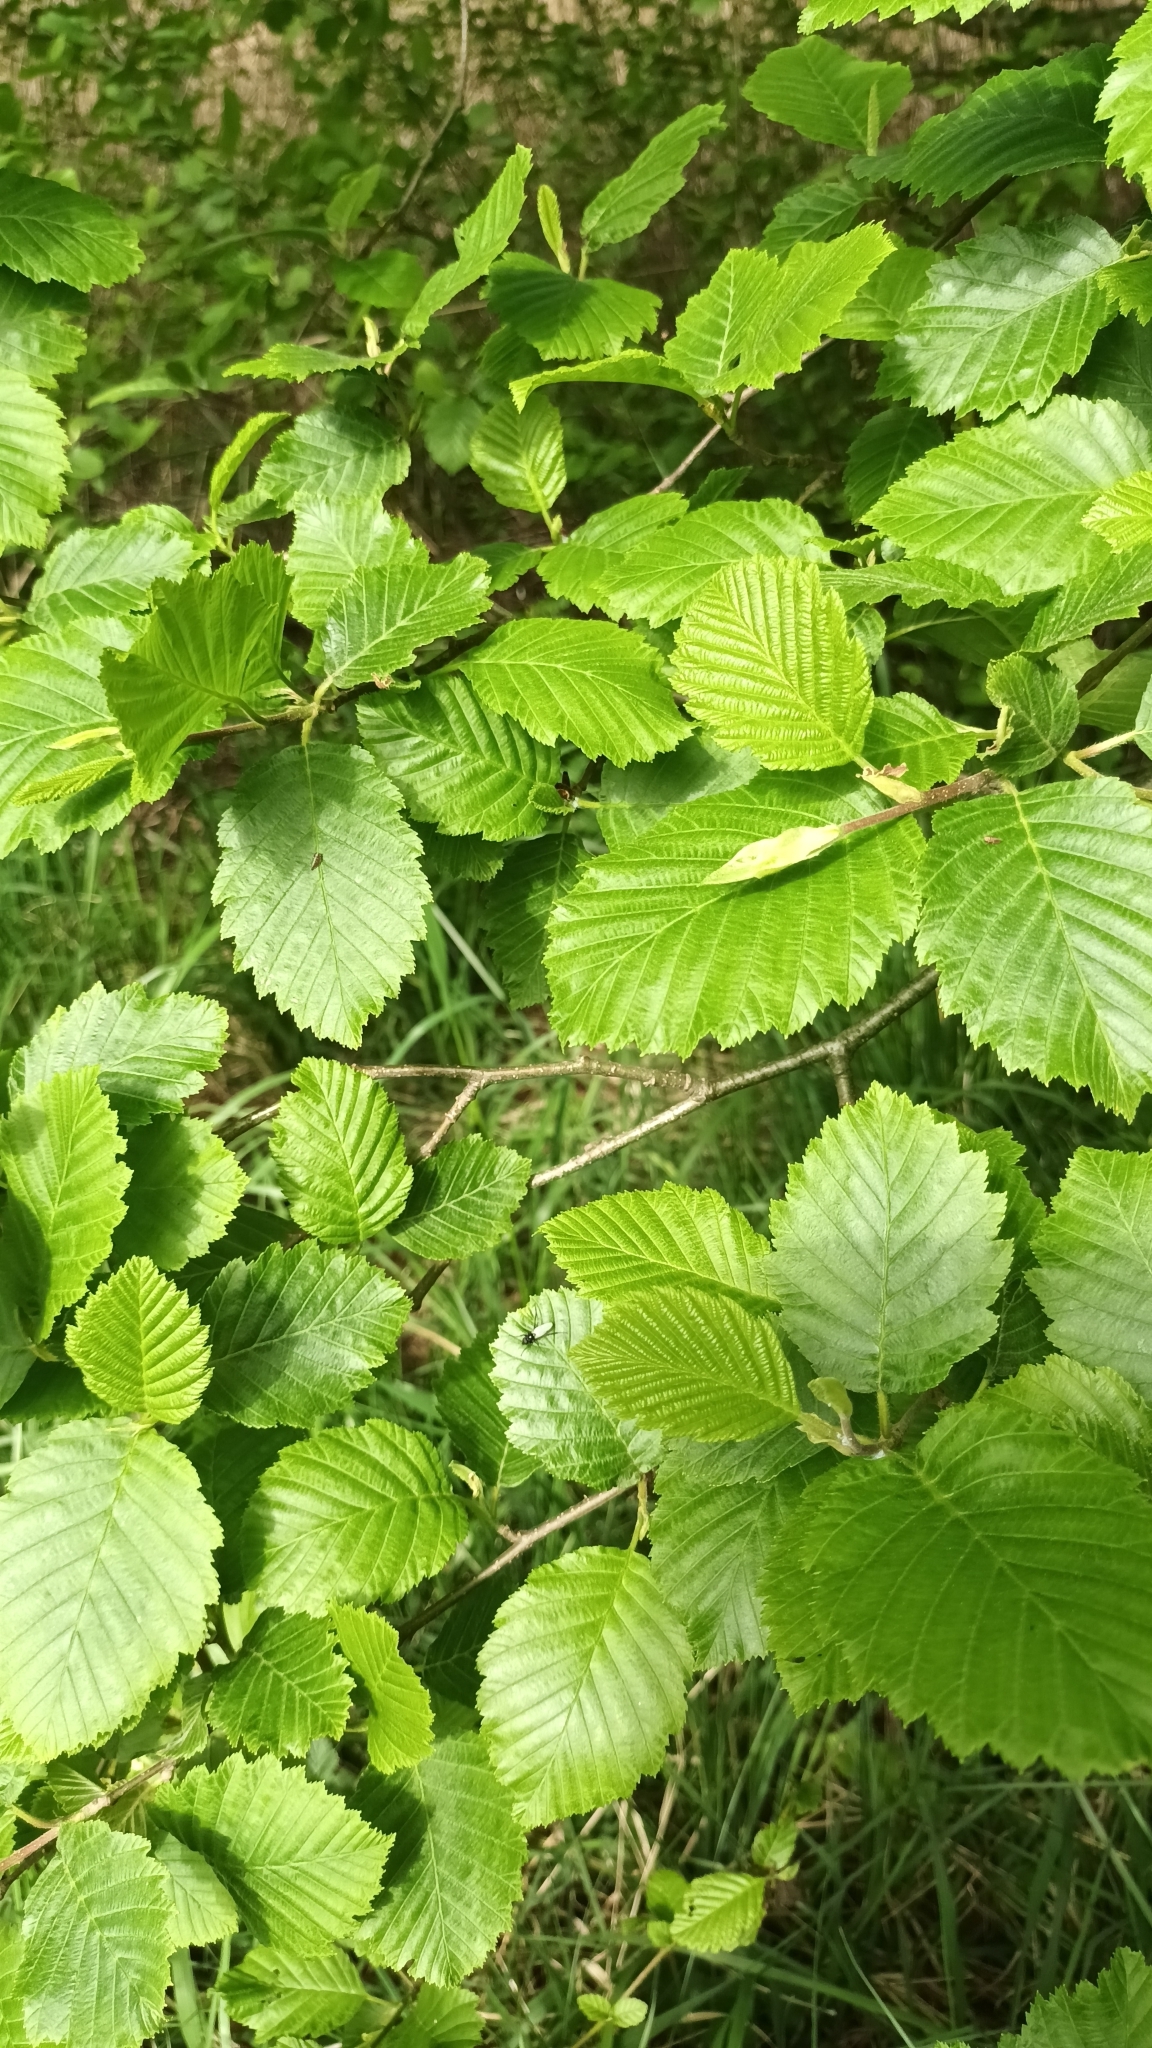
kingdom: Plantae
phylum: Tracheophyta
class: Magnoliopsida
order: Fagales
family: Betulaceae
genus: Alnus
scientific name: Alnus incana
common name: Grey alder
